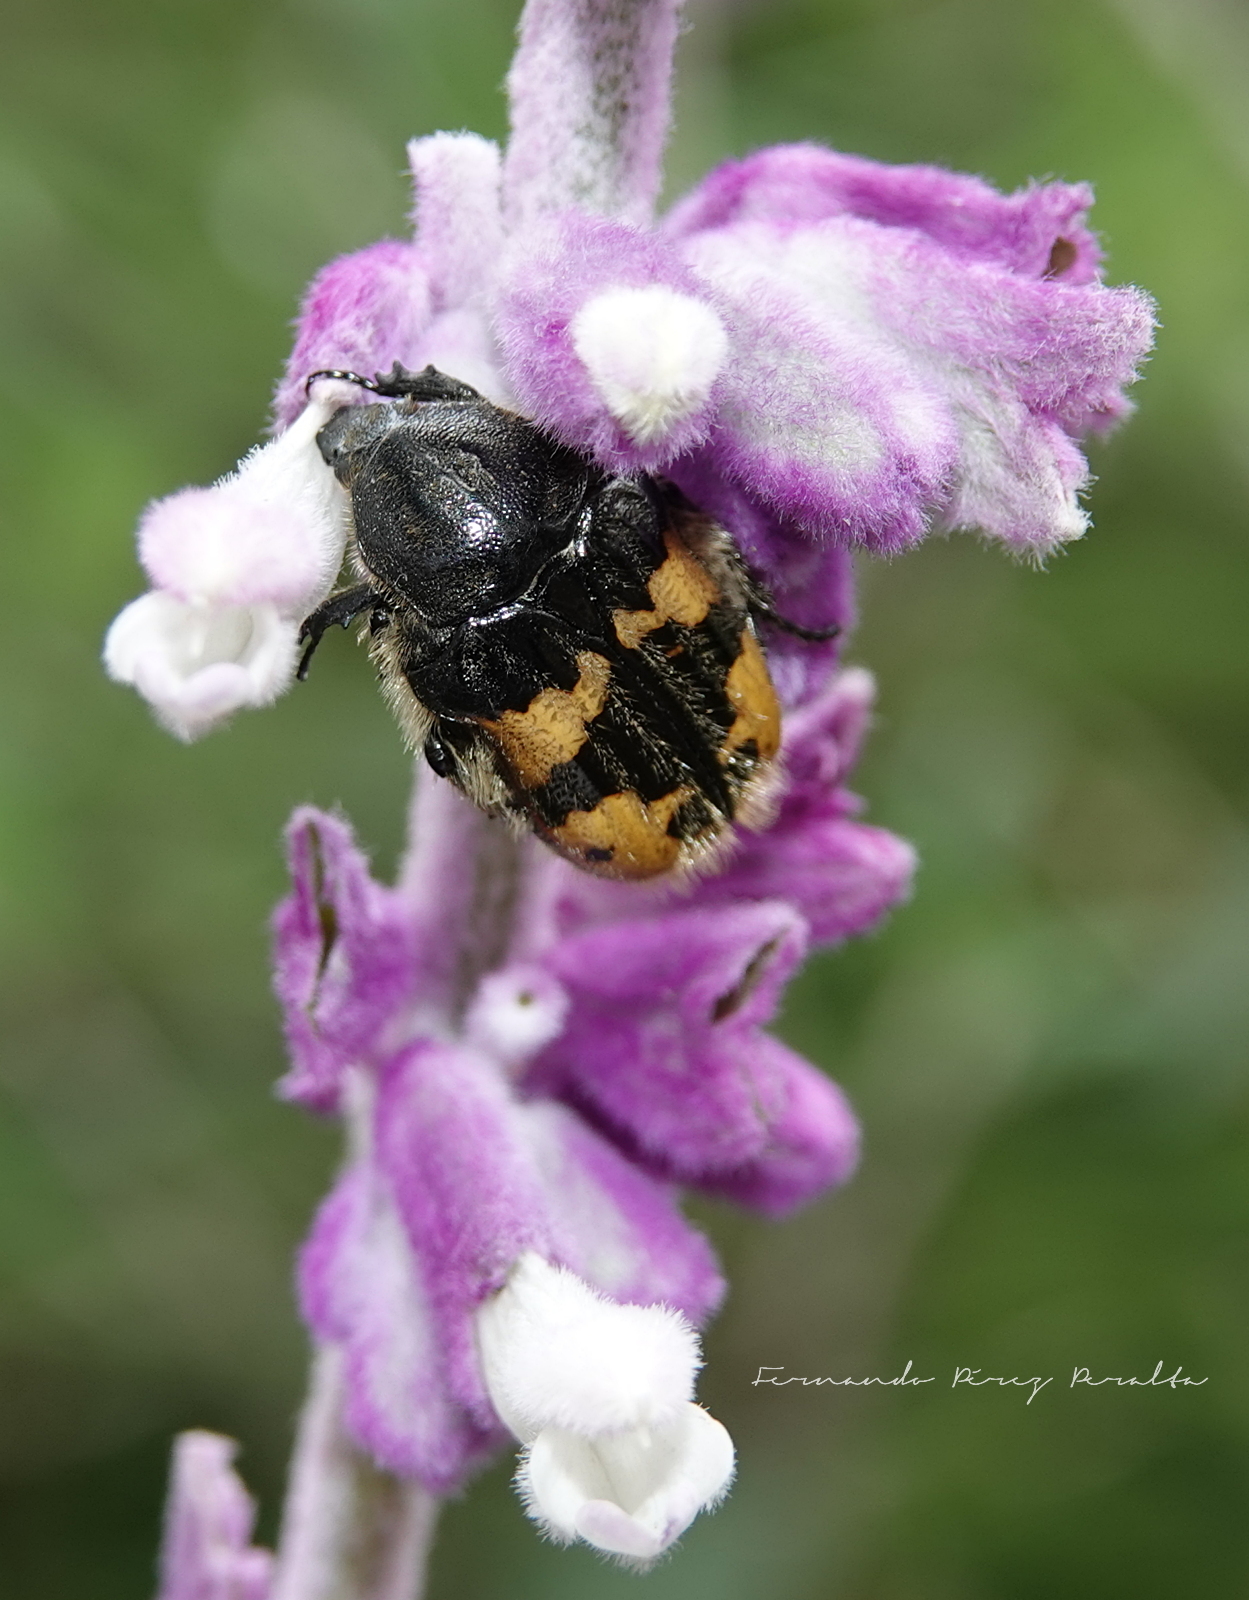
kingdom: Animalia
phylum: Arthropoda
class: Insecta
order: Coleoptera
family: Scarabaeidae
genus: Euphoria
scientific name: Euphoria basalis
